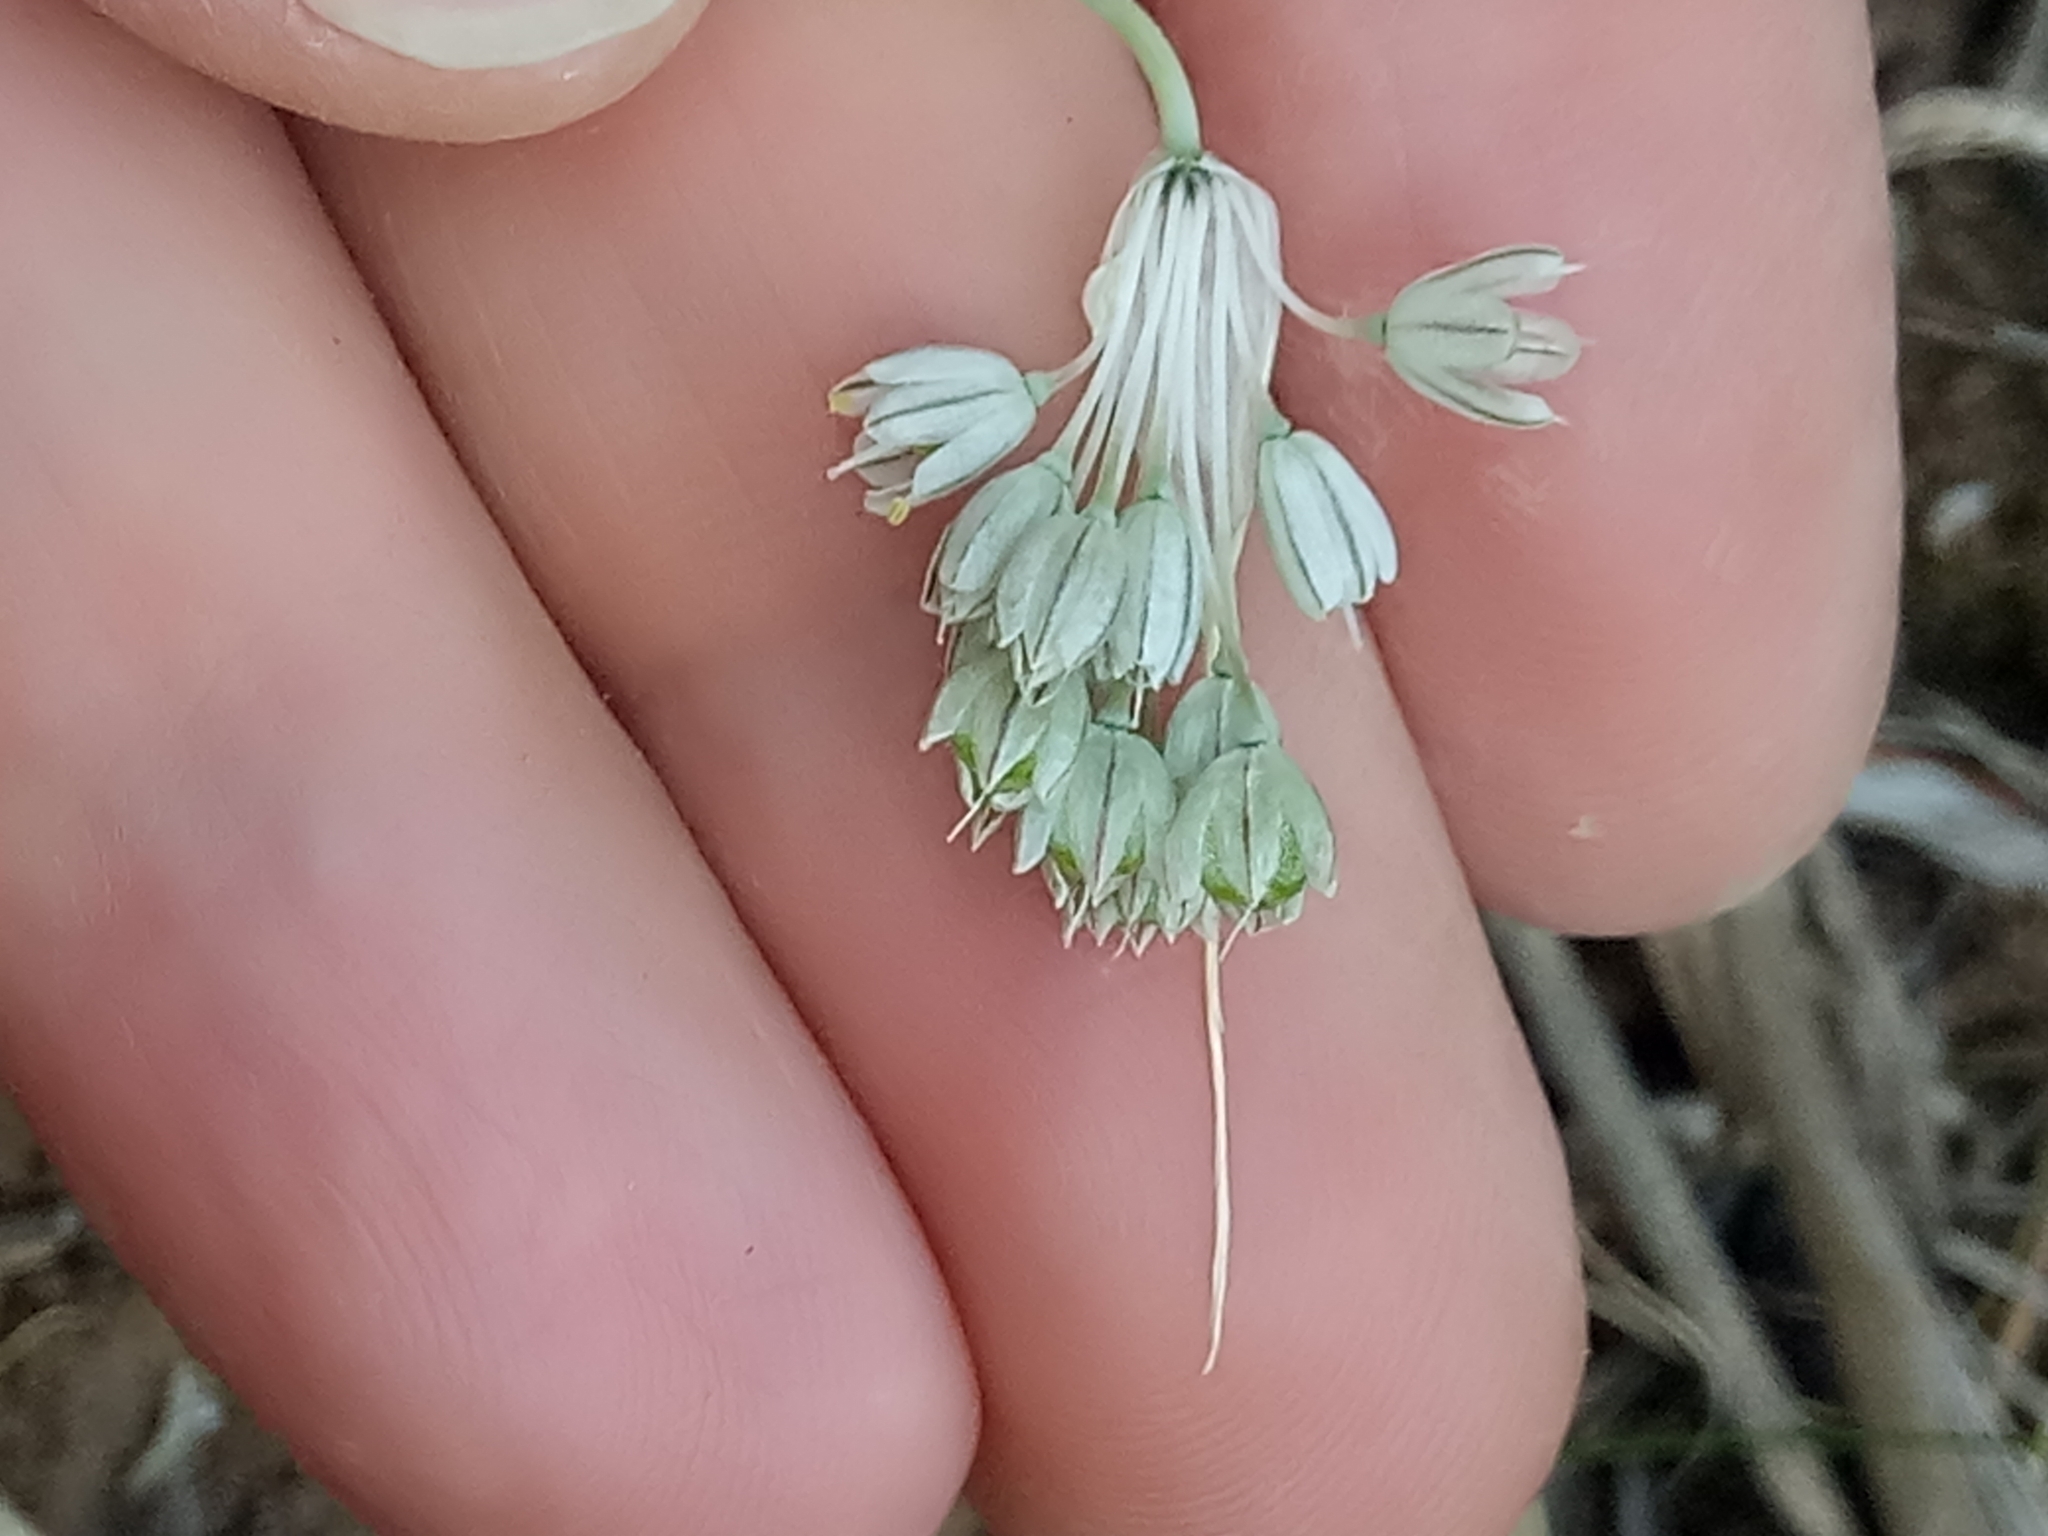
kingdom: Plantae
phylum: Tracheophyta
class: Liliopsida
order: Asparagales
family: Amaryllidaceae
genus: Allium
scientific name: Allium antiatlanticum
